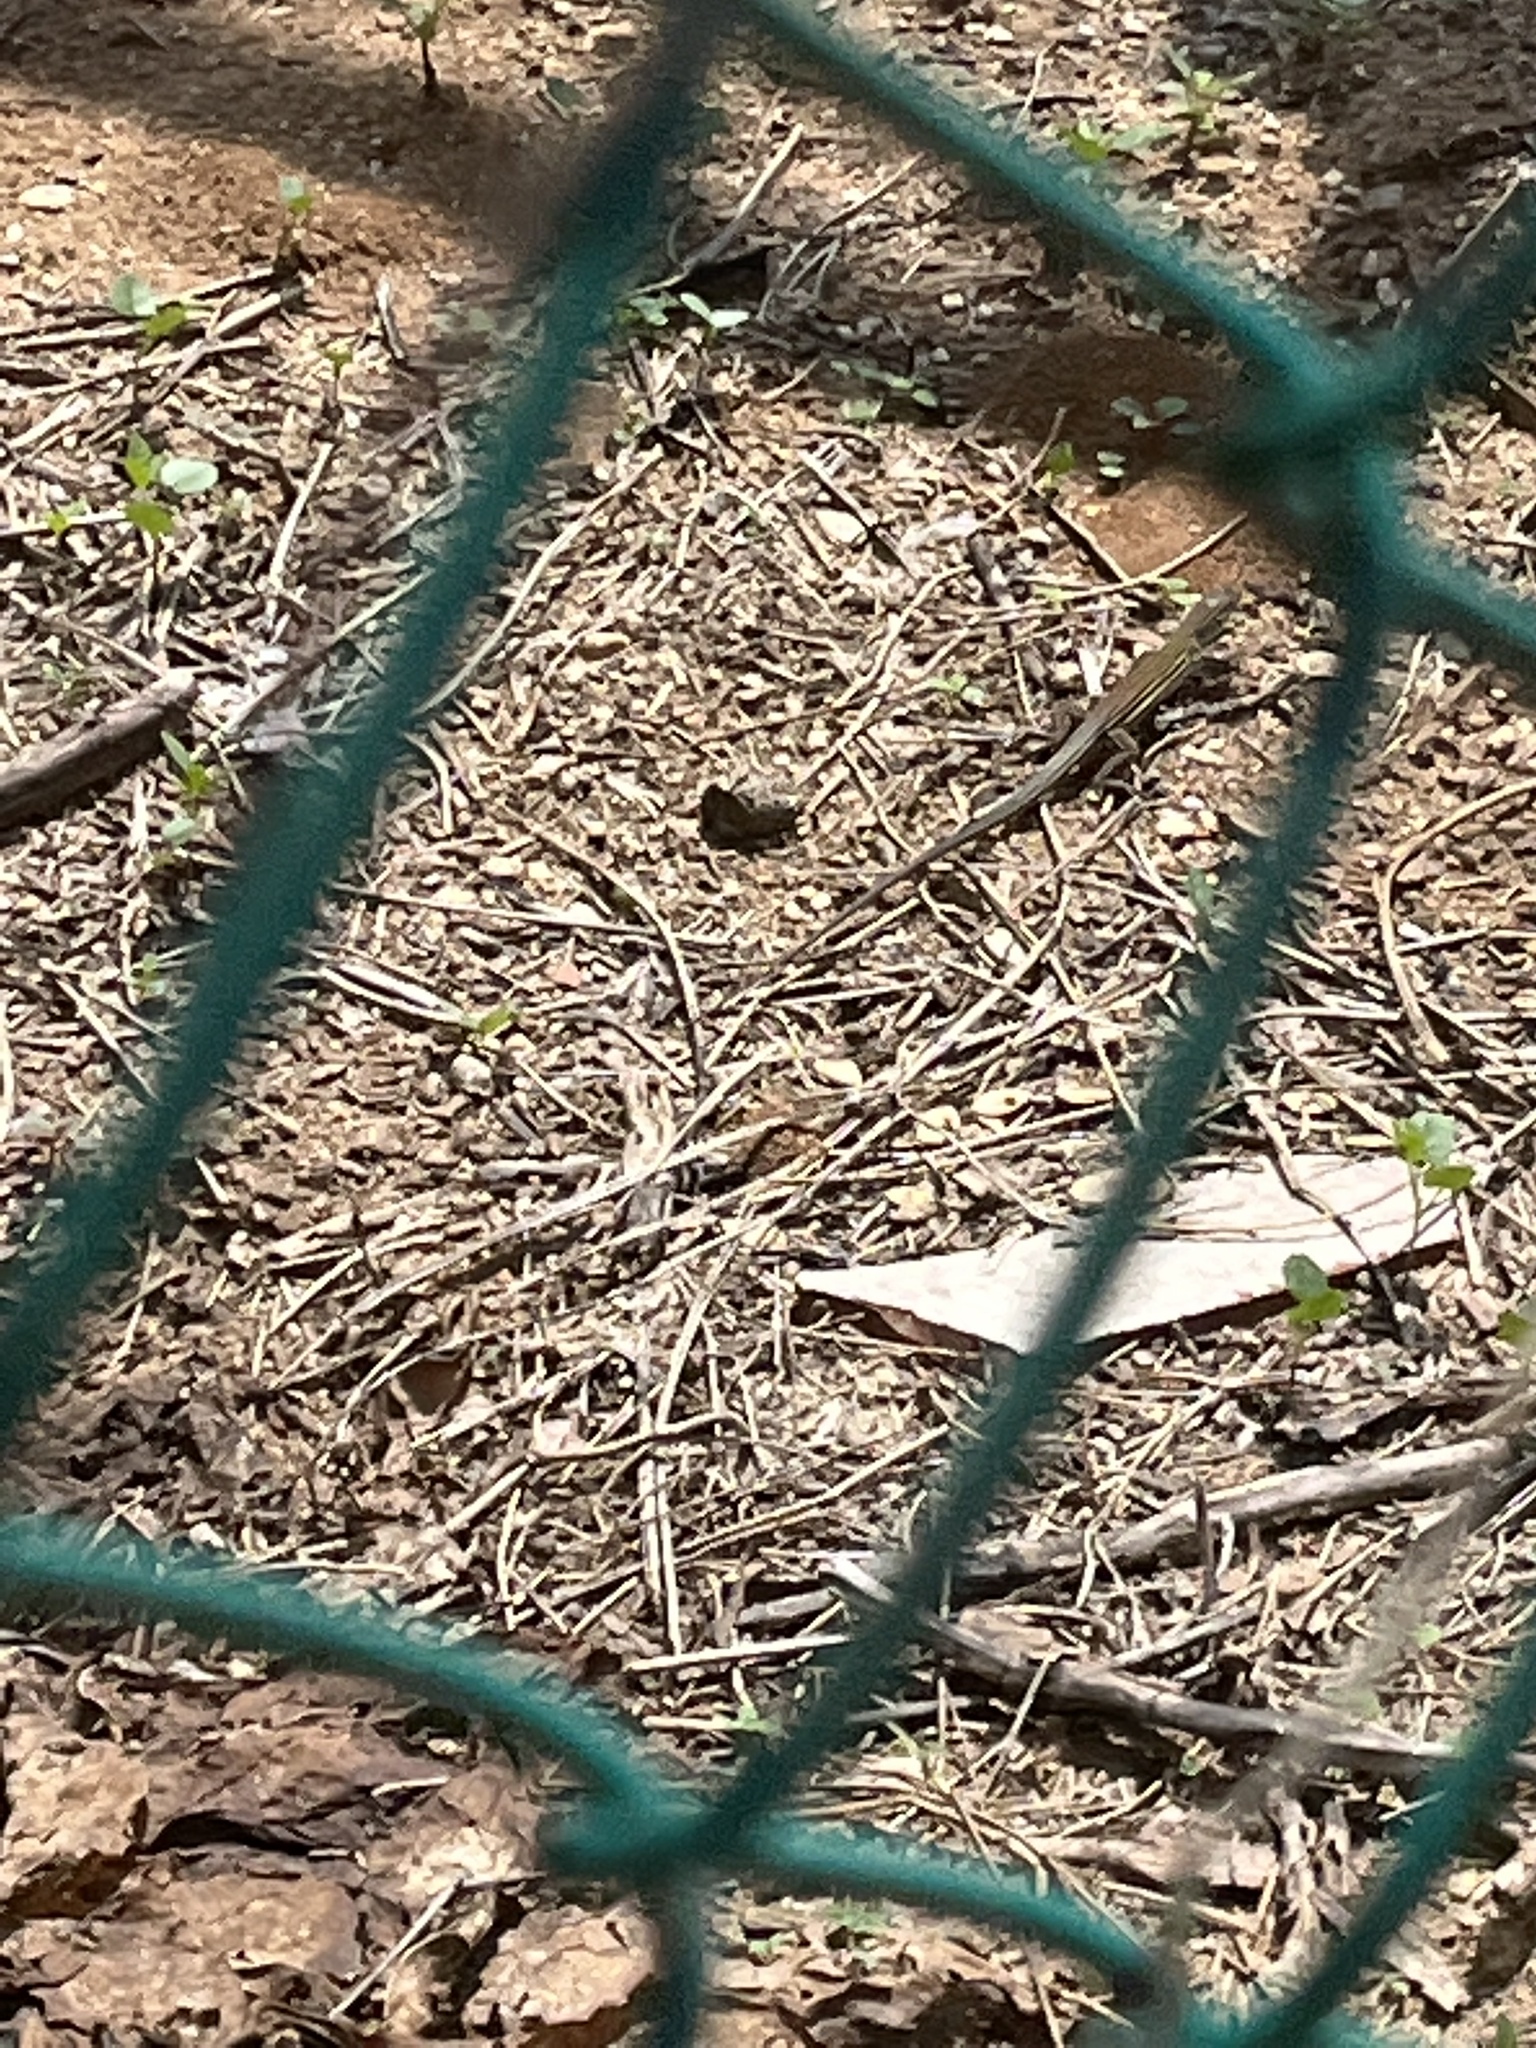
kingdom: Animalia
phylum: Chordata
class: Squamata
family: Teiidae
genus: Aspidoscelis
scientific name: Aspidoscelis deppii
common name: Blackbelly racerunner
